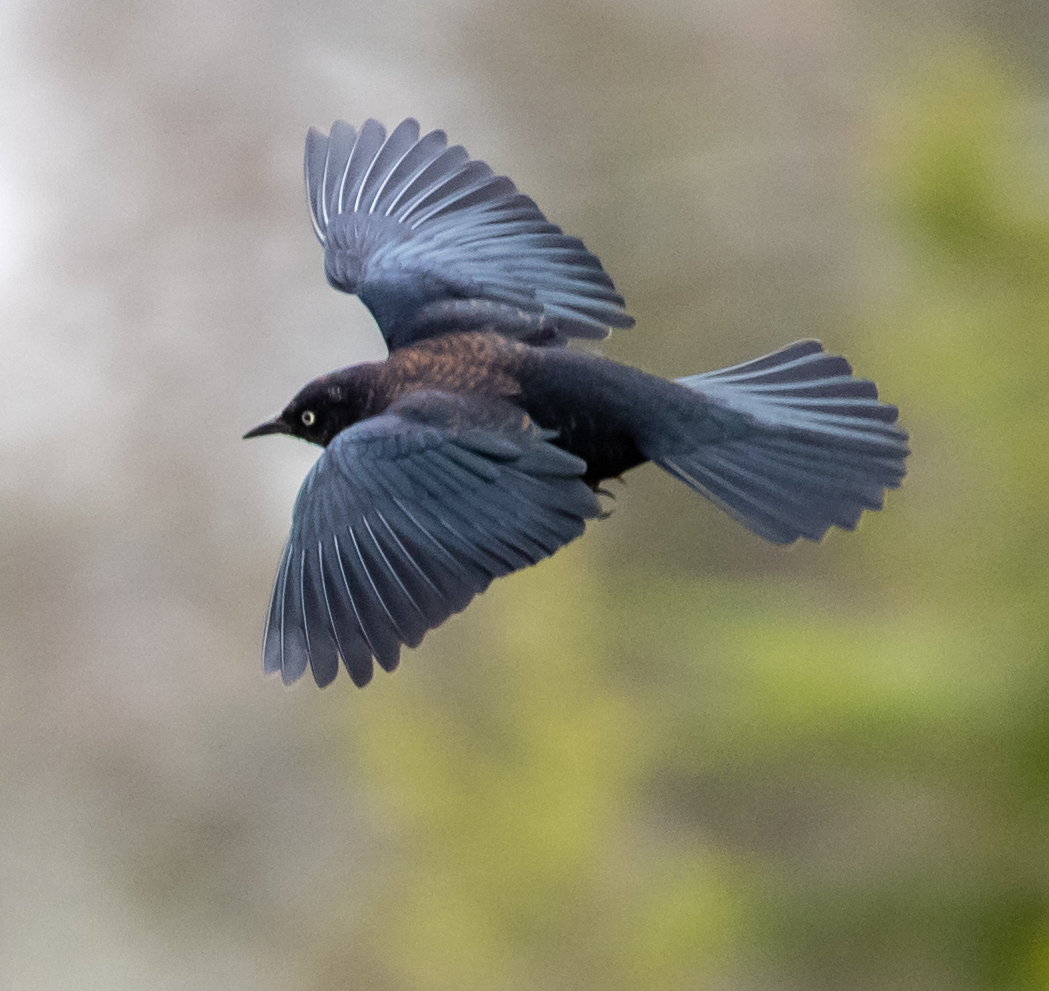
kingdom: Animalia
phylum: Chordata
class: Aves
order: Passeriformes
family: Icteridae
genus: Euphagus
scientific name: Euphagus carolinus
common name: Rusty blackbird
